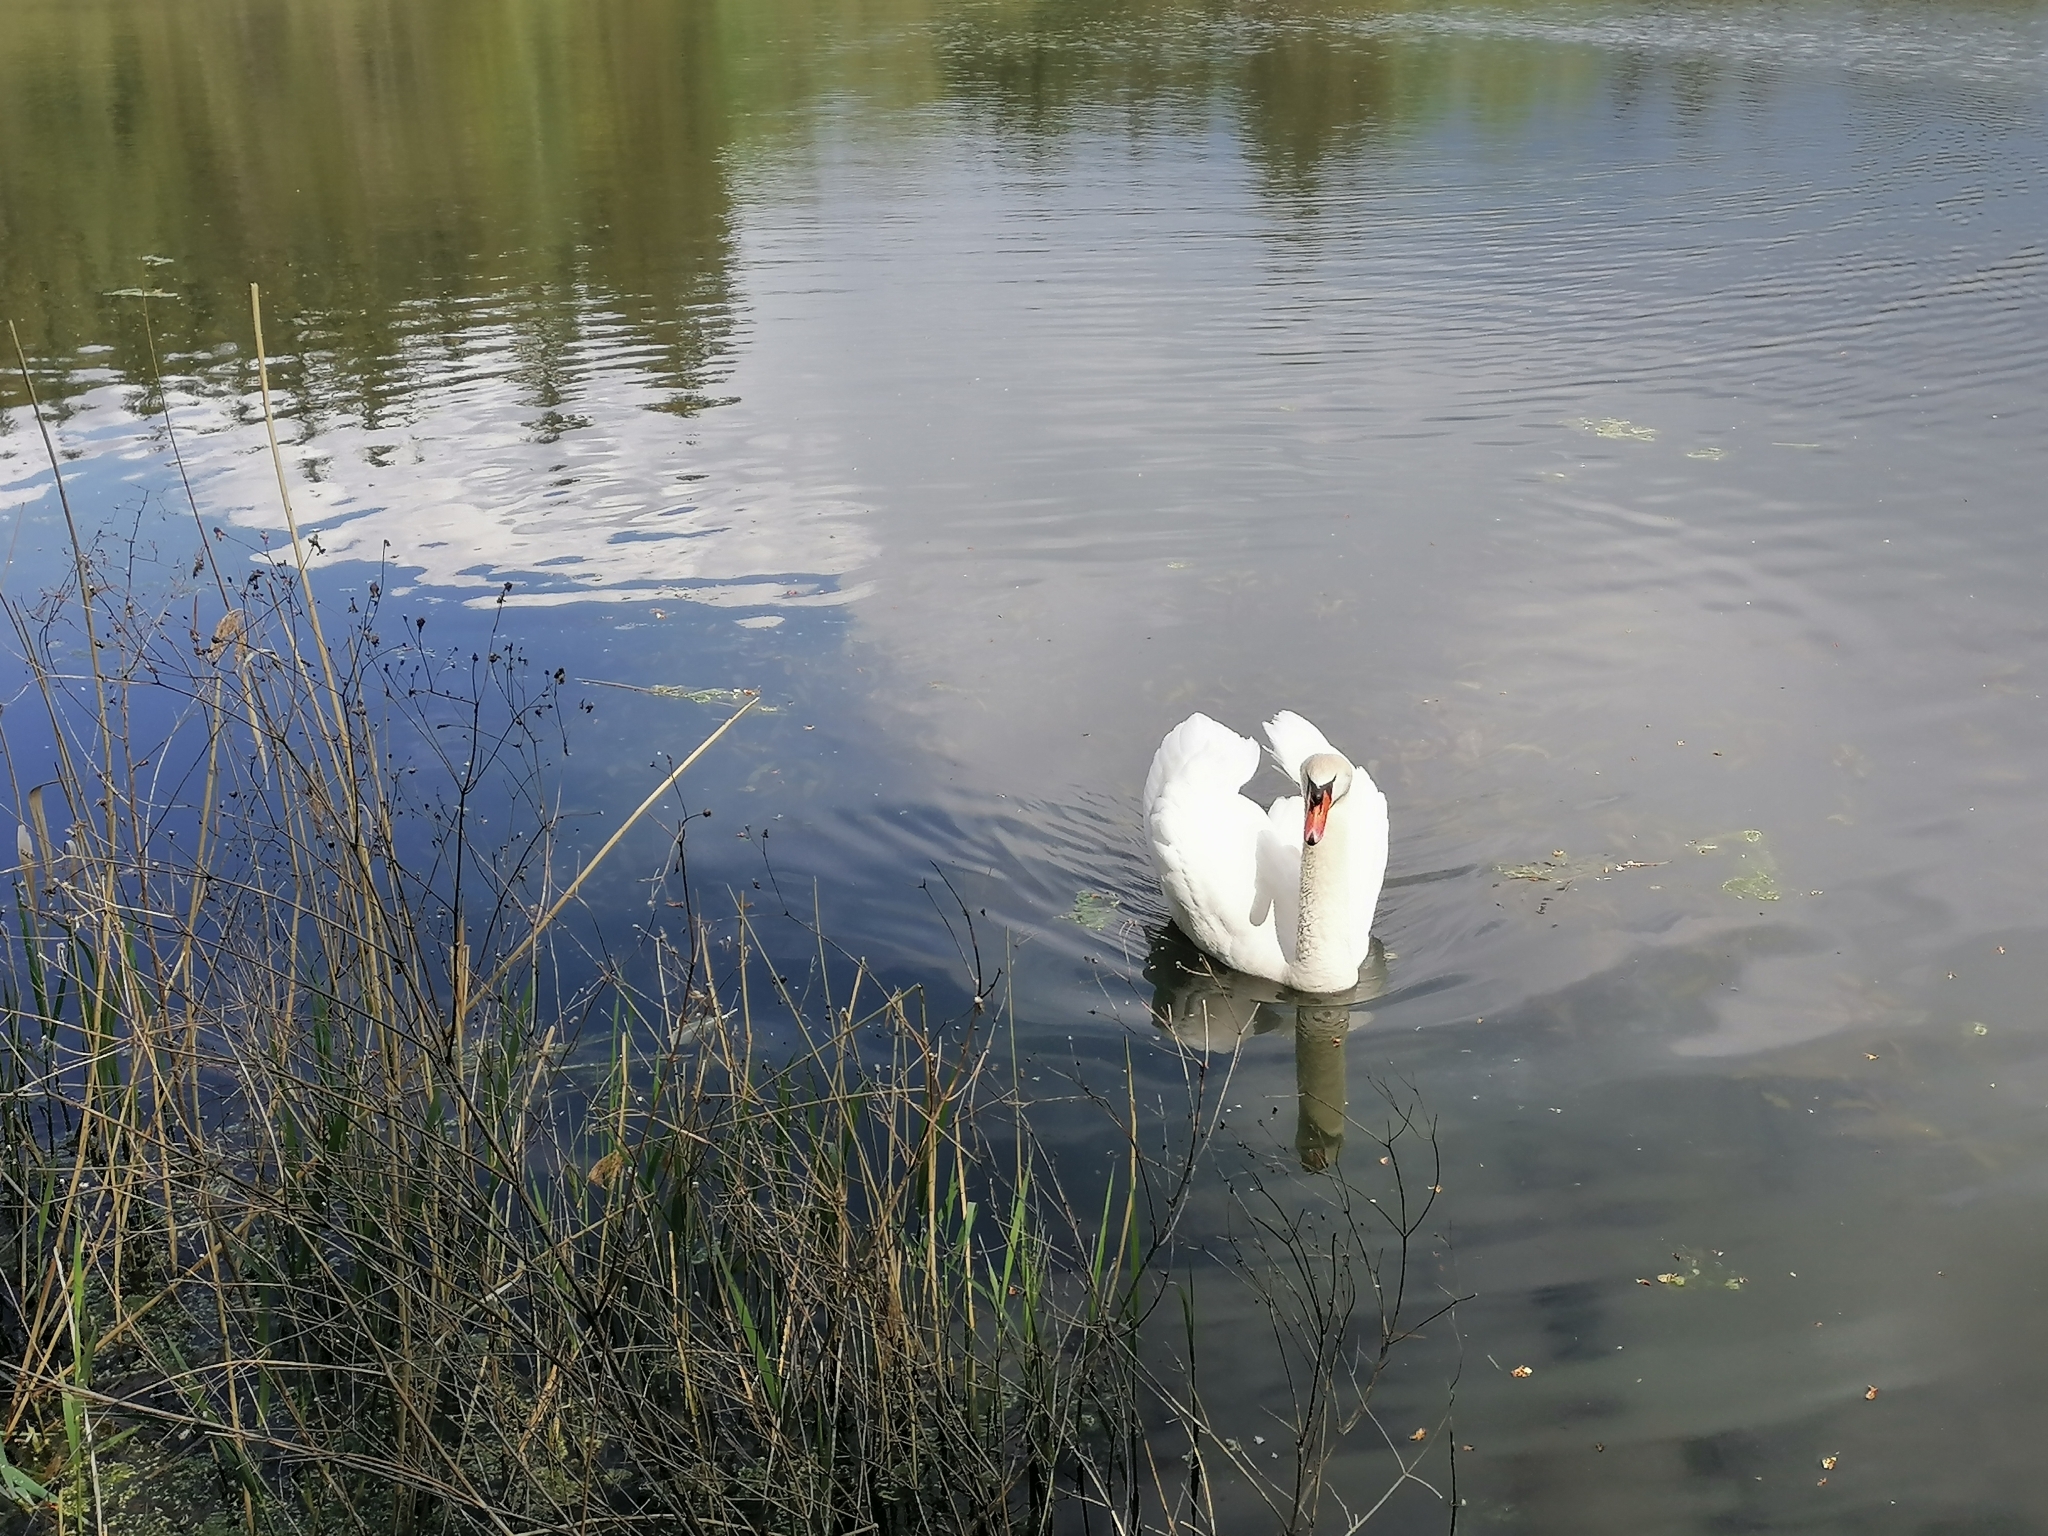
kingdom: Animalia
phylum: Chordata
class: Aves
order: Anseriformes
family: Anatidae
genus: Cygnus
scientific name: Cygnus olor
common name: Mute swan
